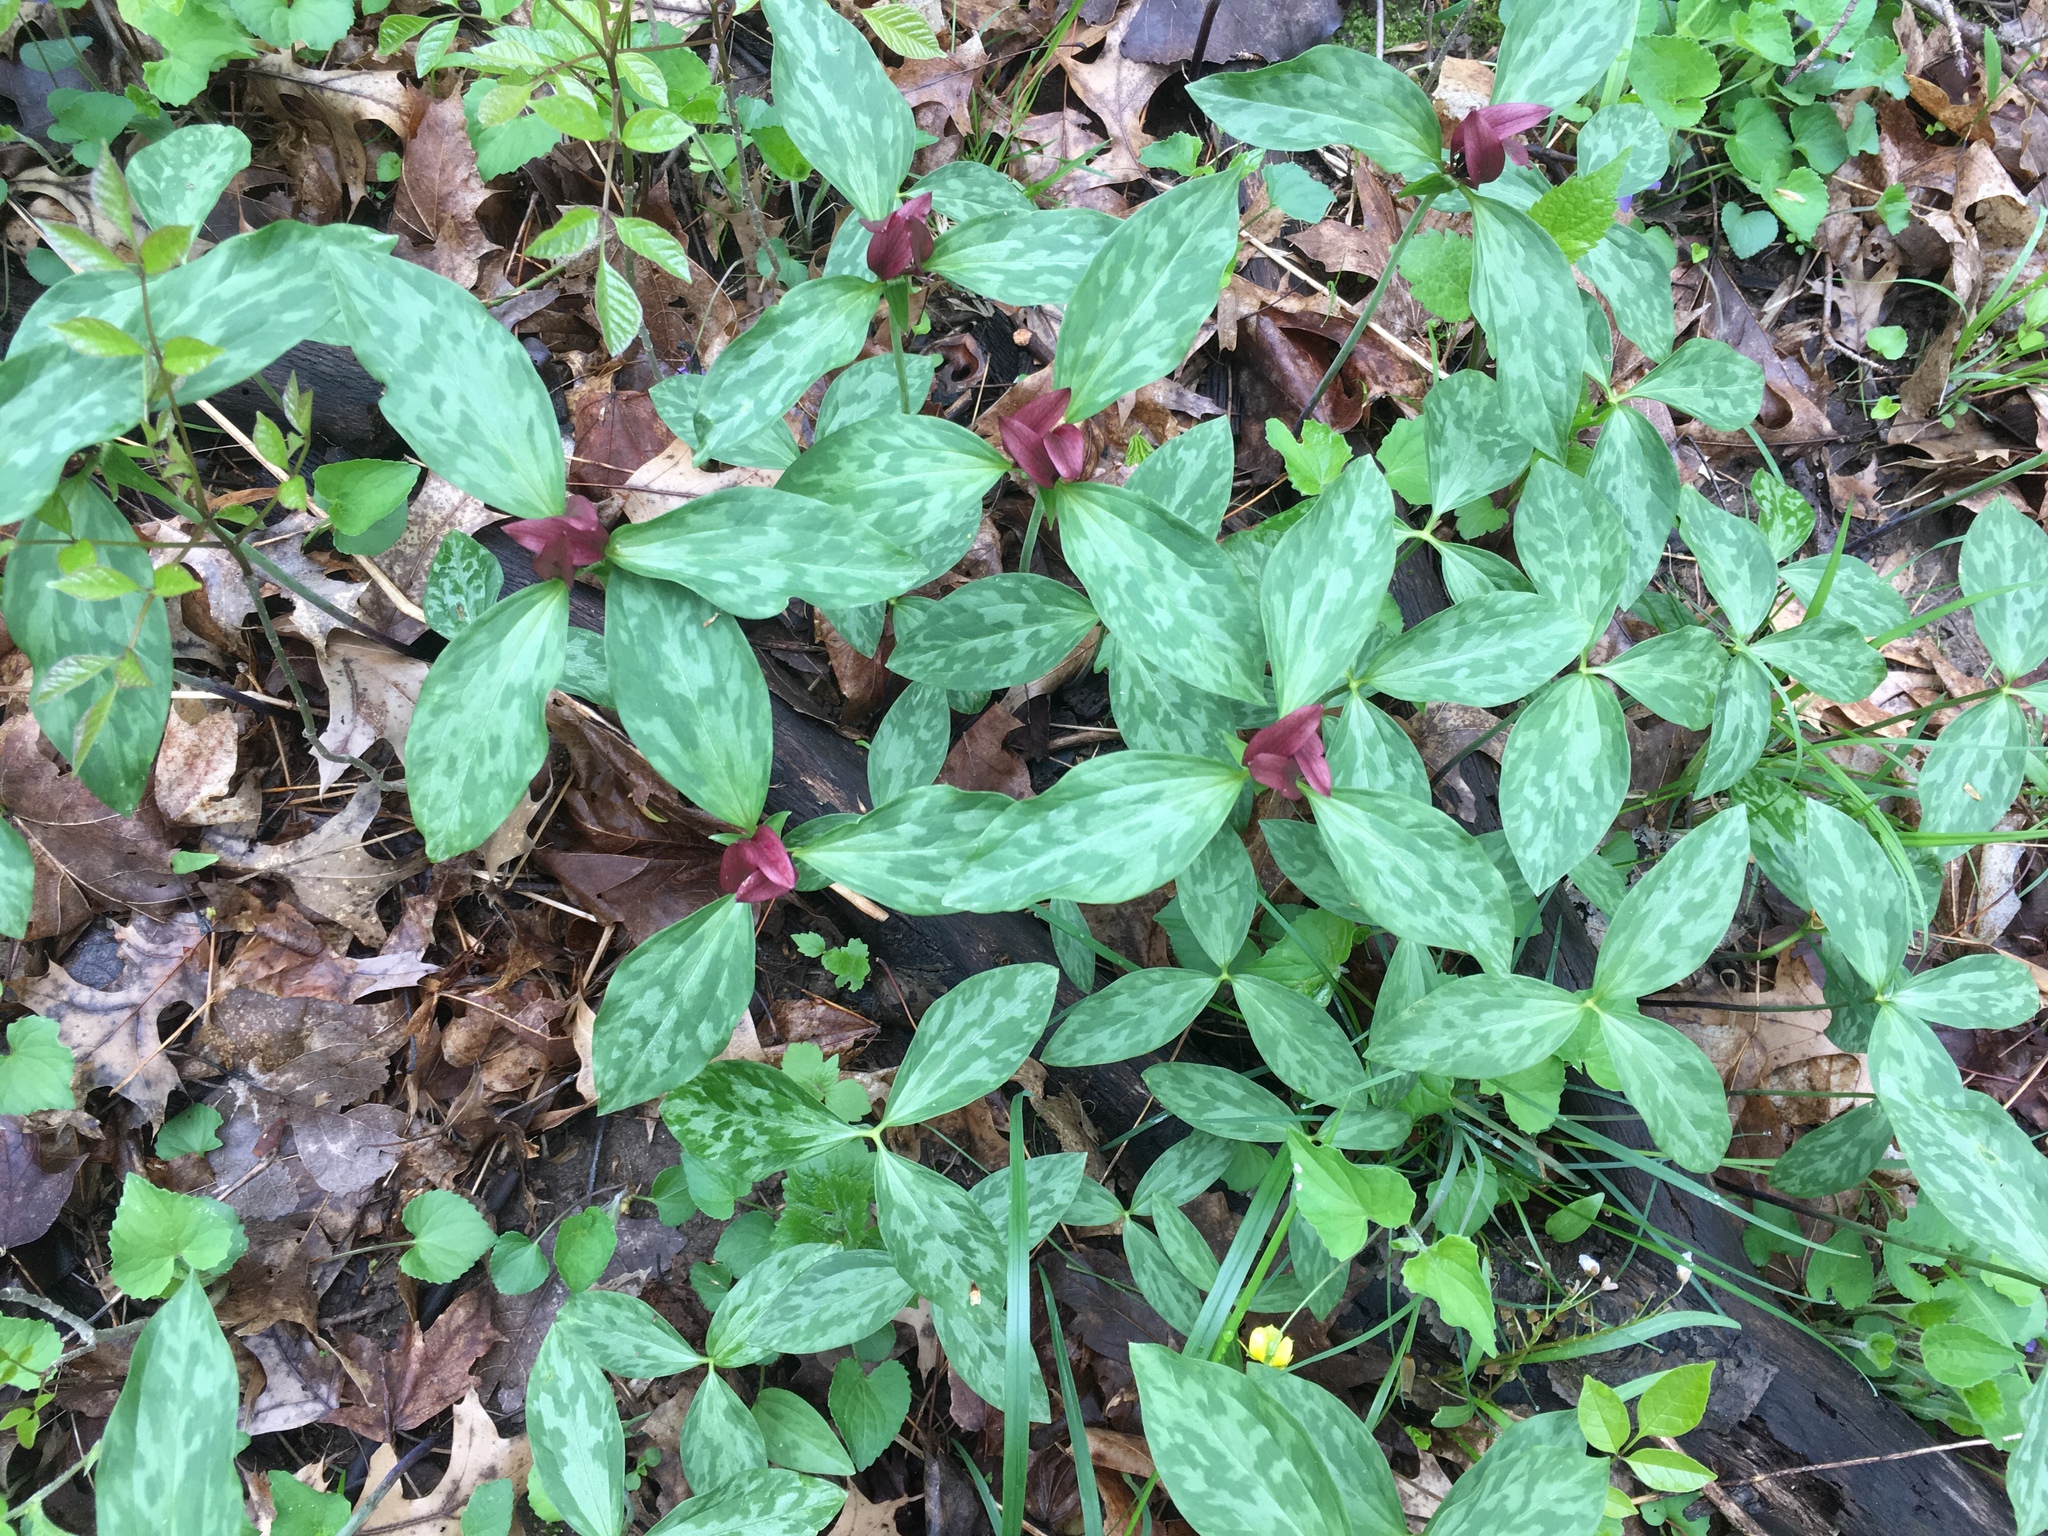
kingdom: Plantae
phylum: Tracheophyta
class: Liliopsida
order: Liliales
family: Melanthiaceae
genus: Trillium
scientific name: Trillium recurvatum
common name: Bloody butcher
